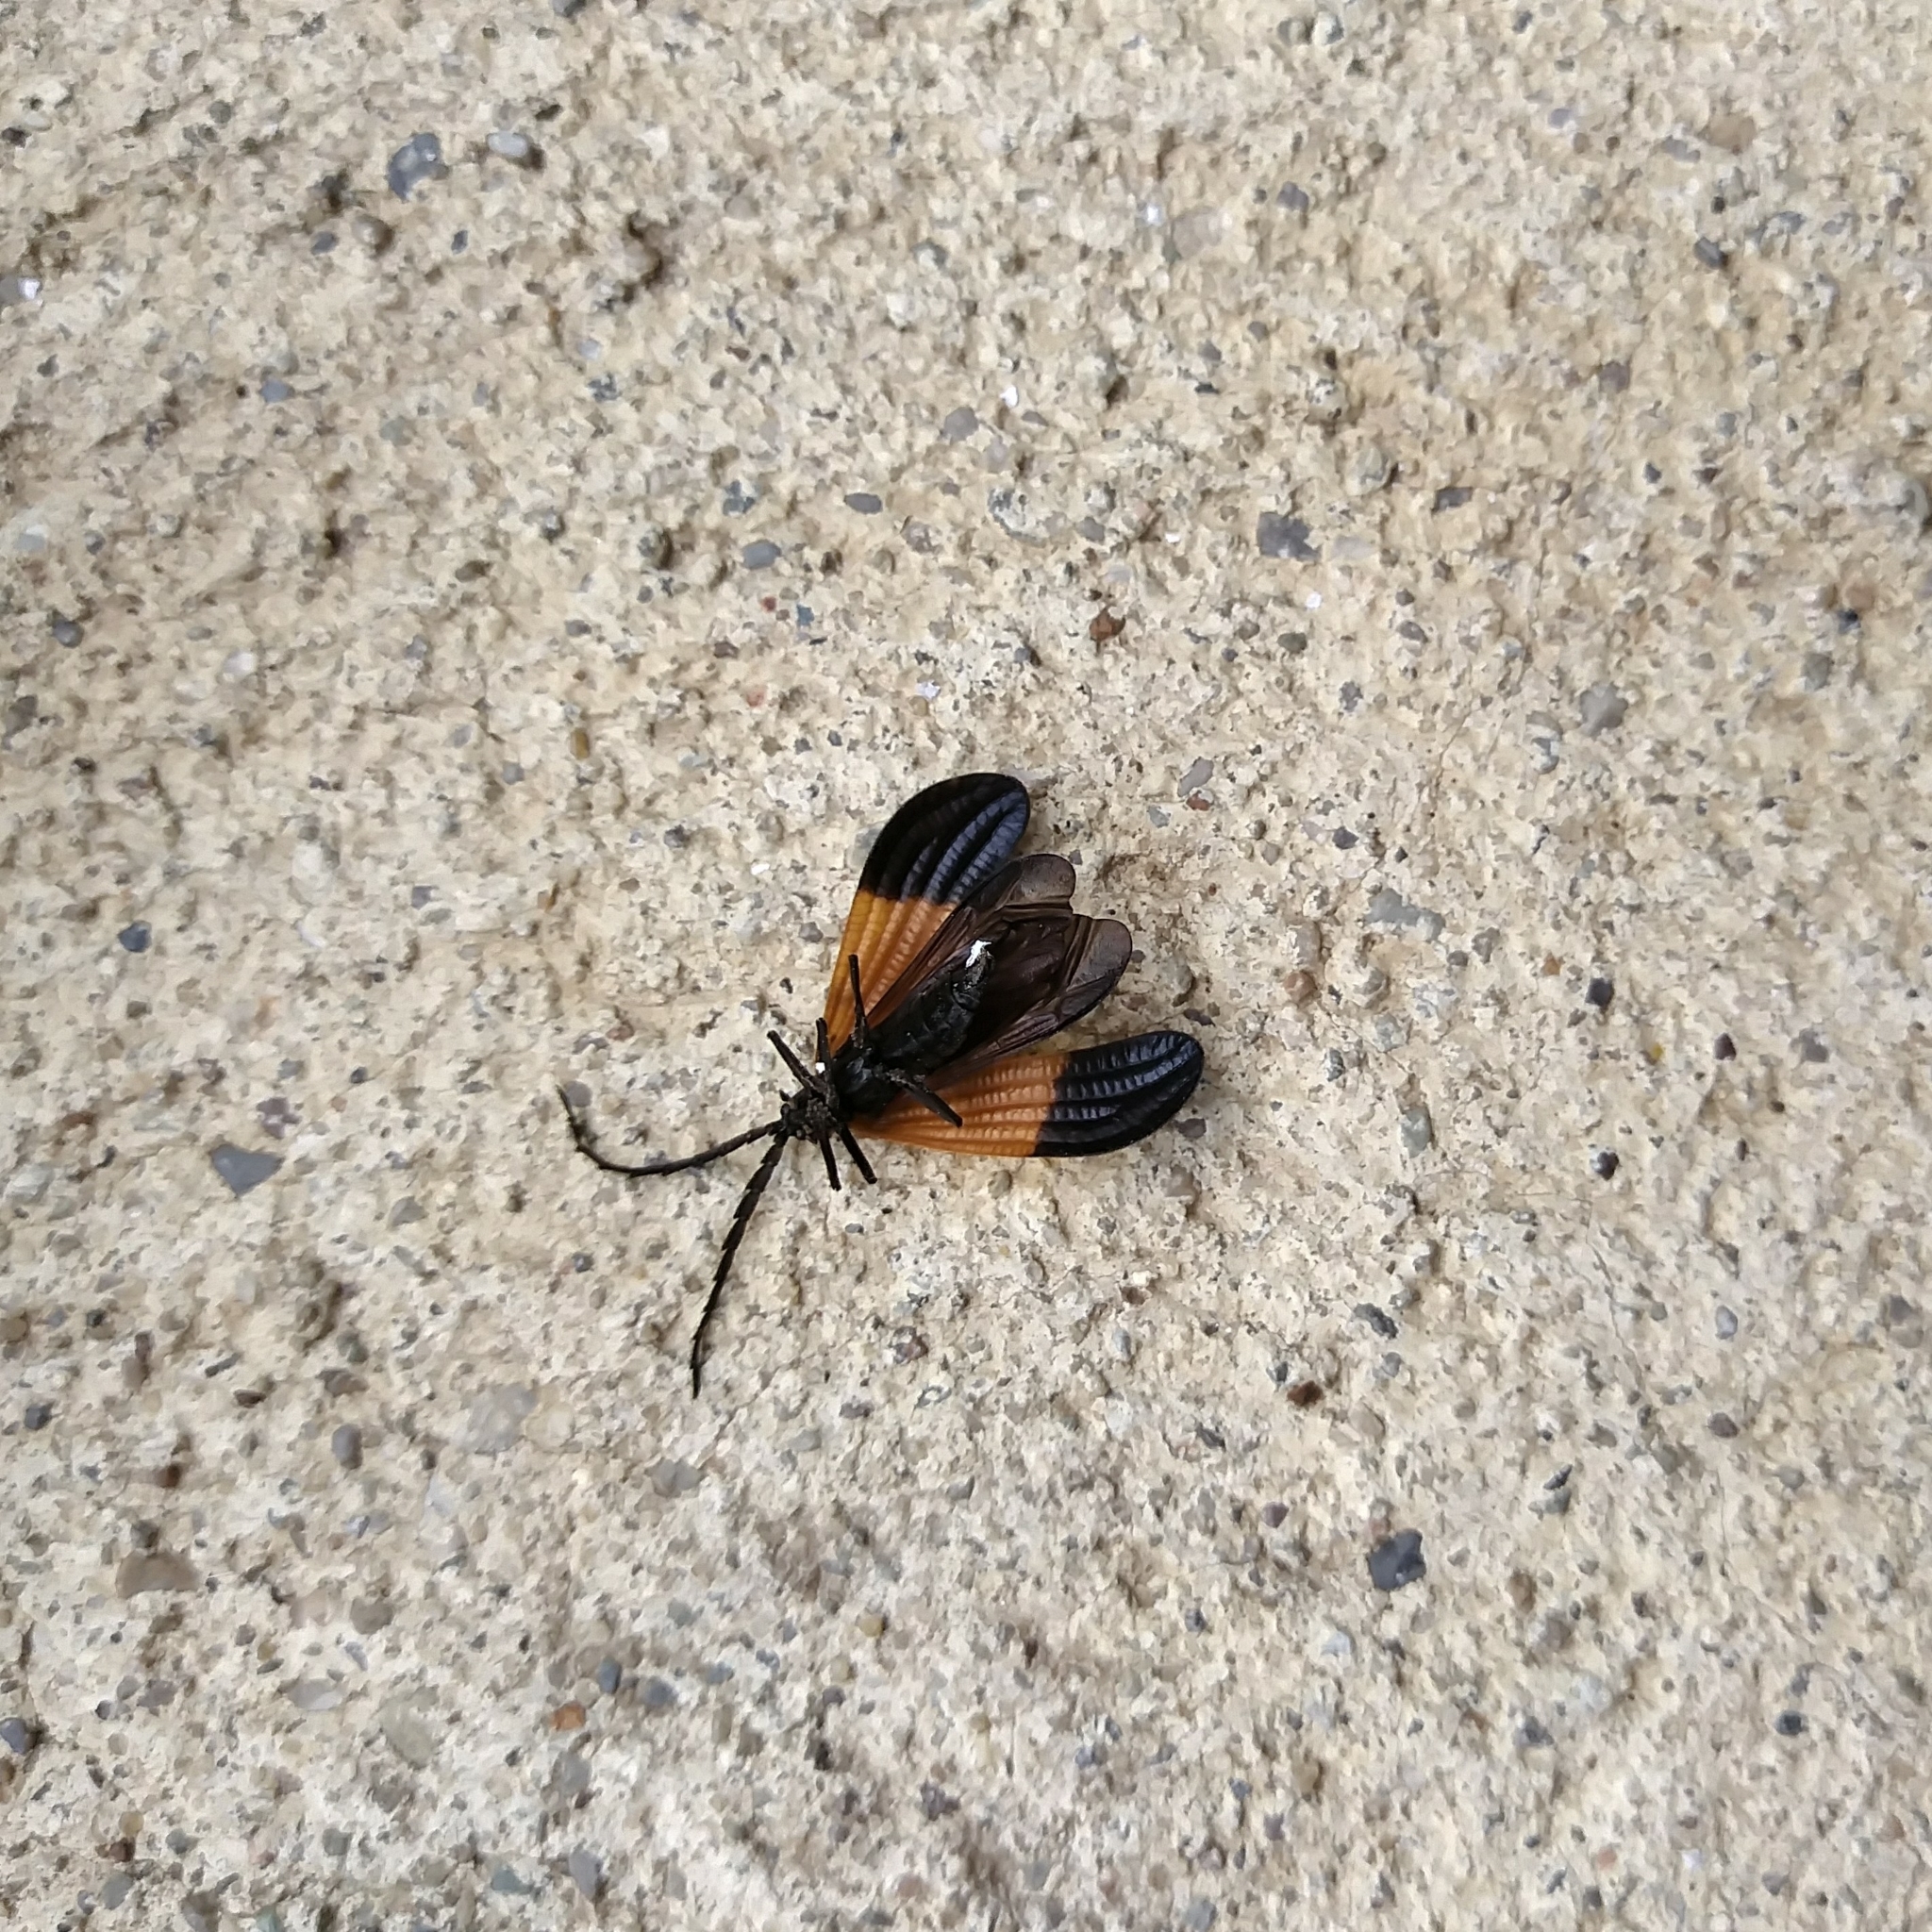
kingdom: Animalia
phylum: Arthropoda
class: Insecta
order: Coleoptera
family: Lycidae
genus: Calopteron
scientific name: Calopteron terminale
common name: End band net-winged beetle
